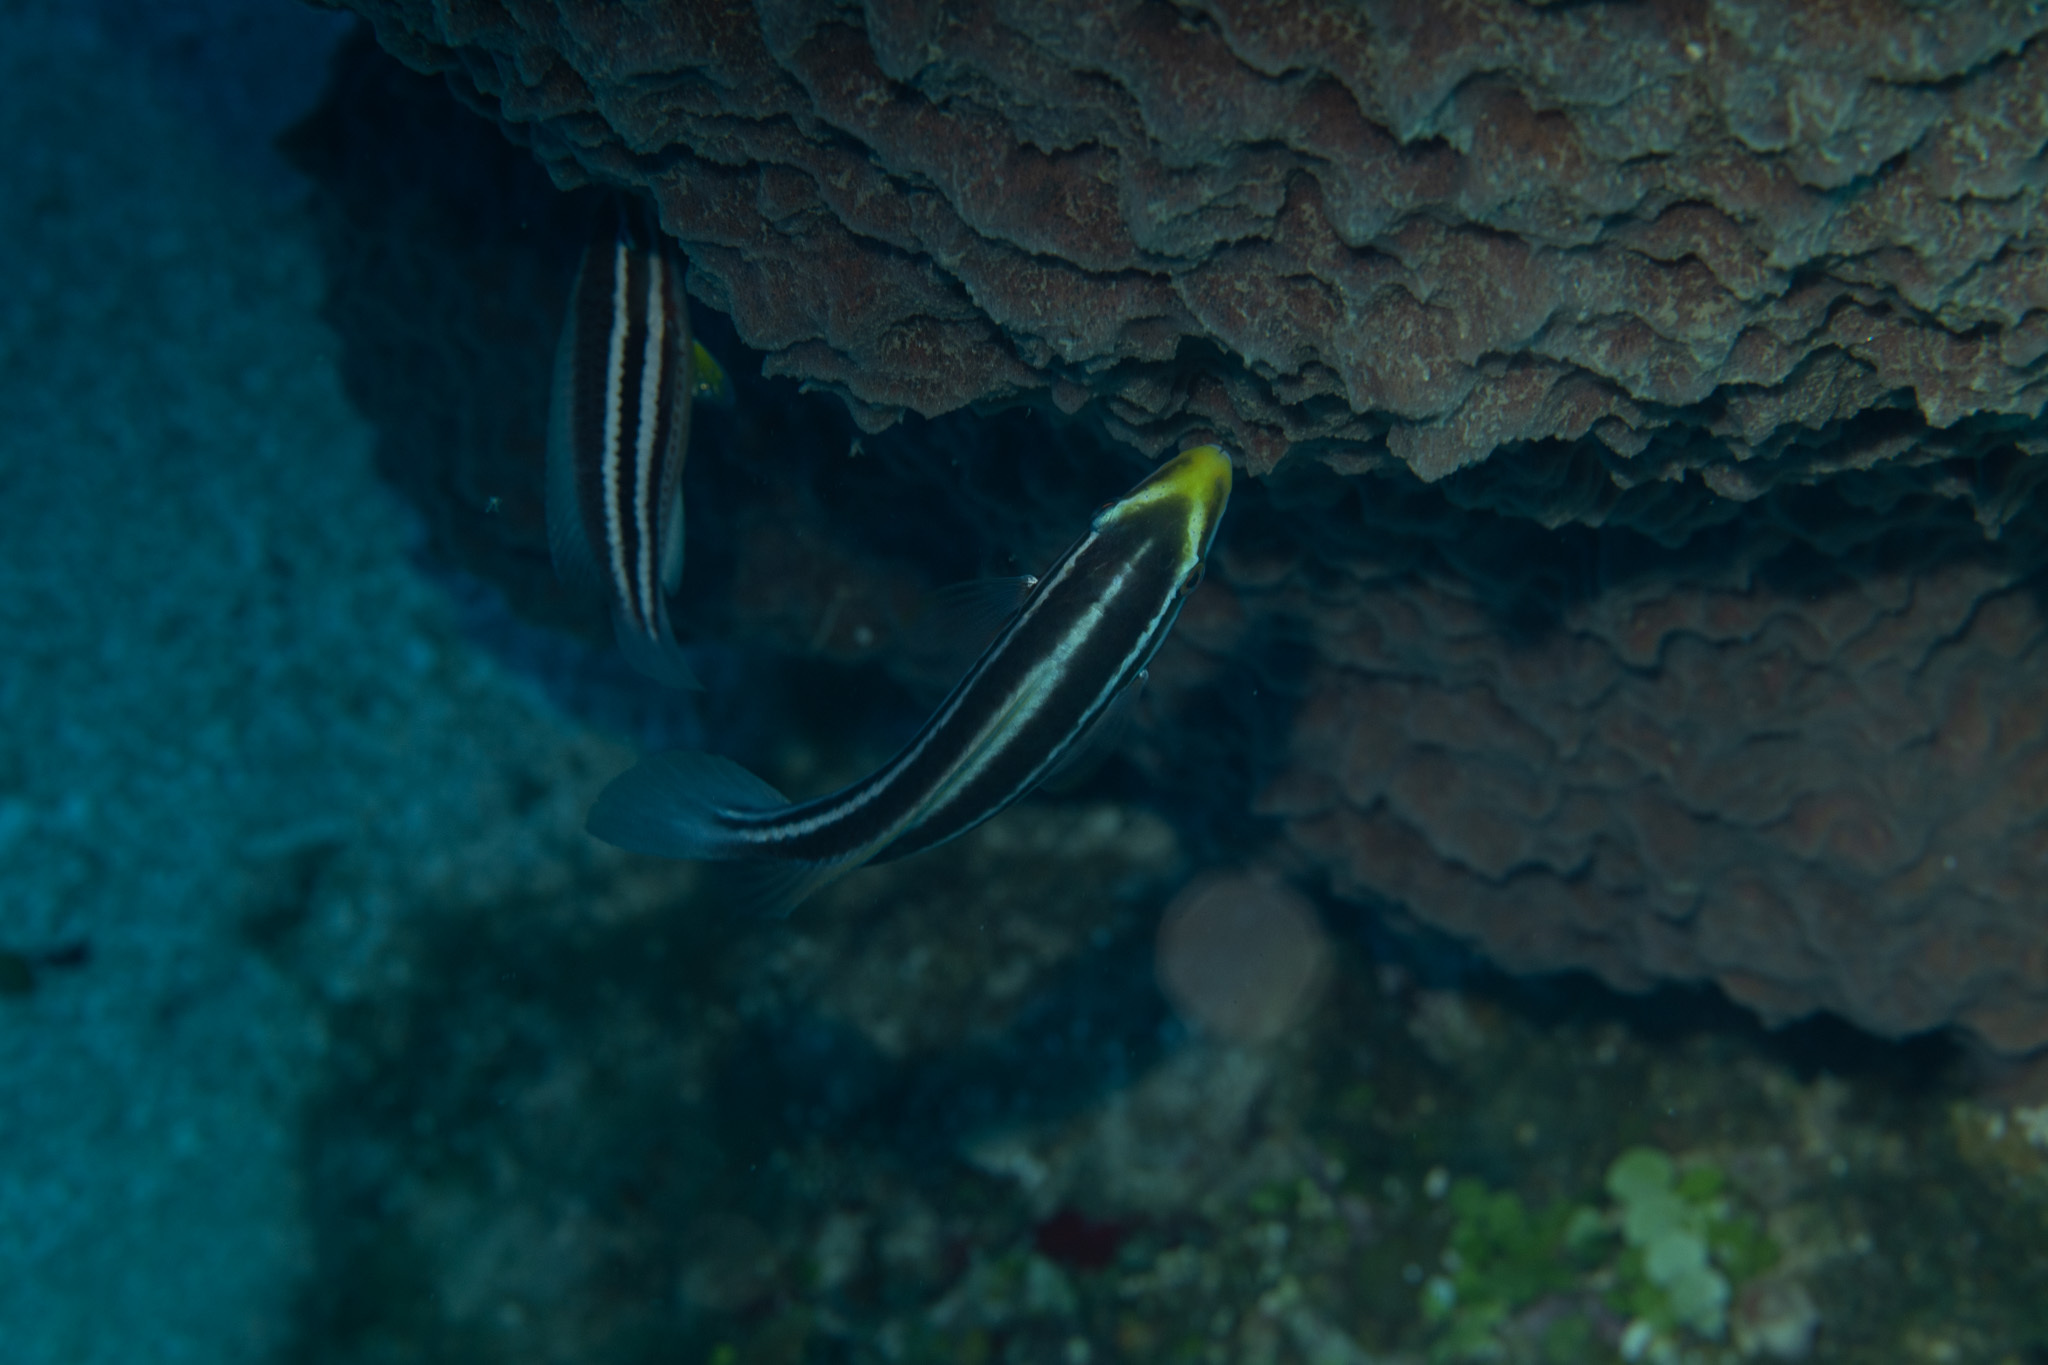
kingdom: Animalia
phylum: Chordata
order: Perciformes
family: Scaridae
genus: Scarus
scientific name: Scarus iseri
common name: Striped parrotfish
